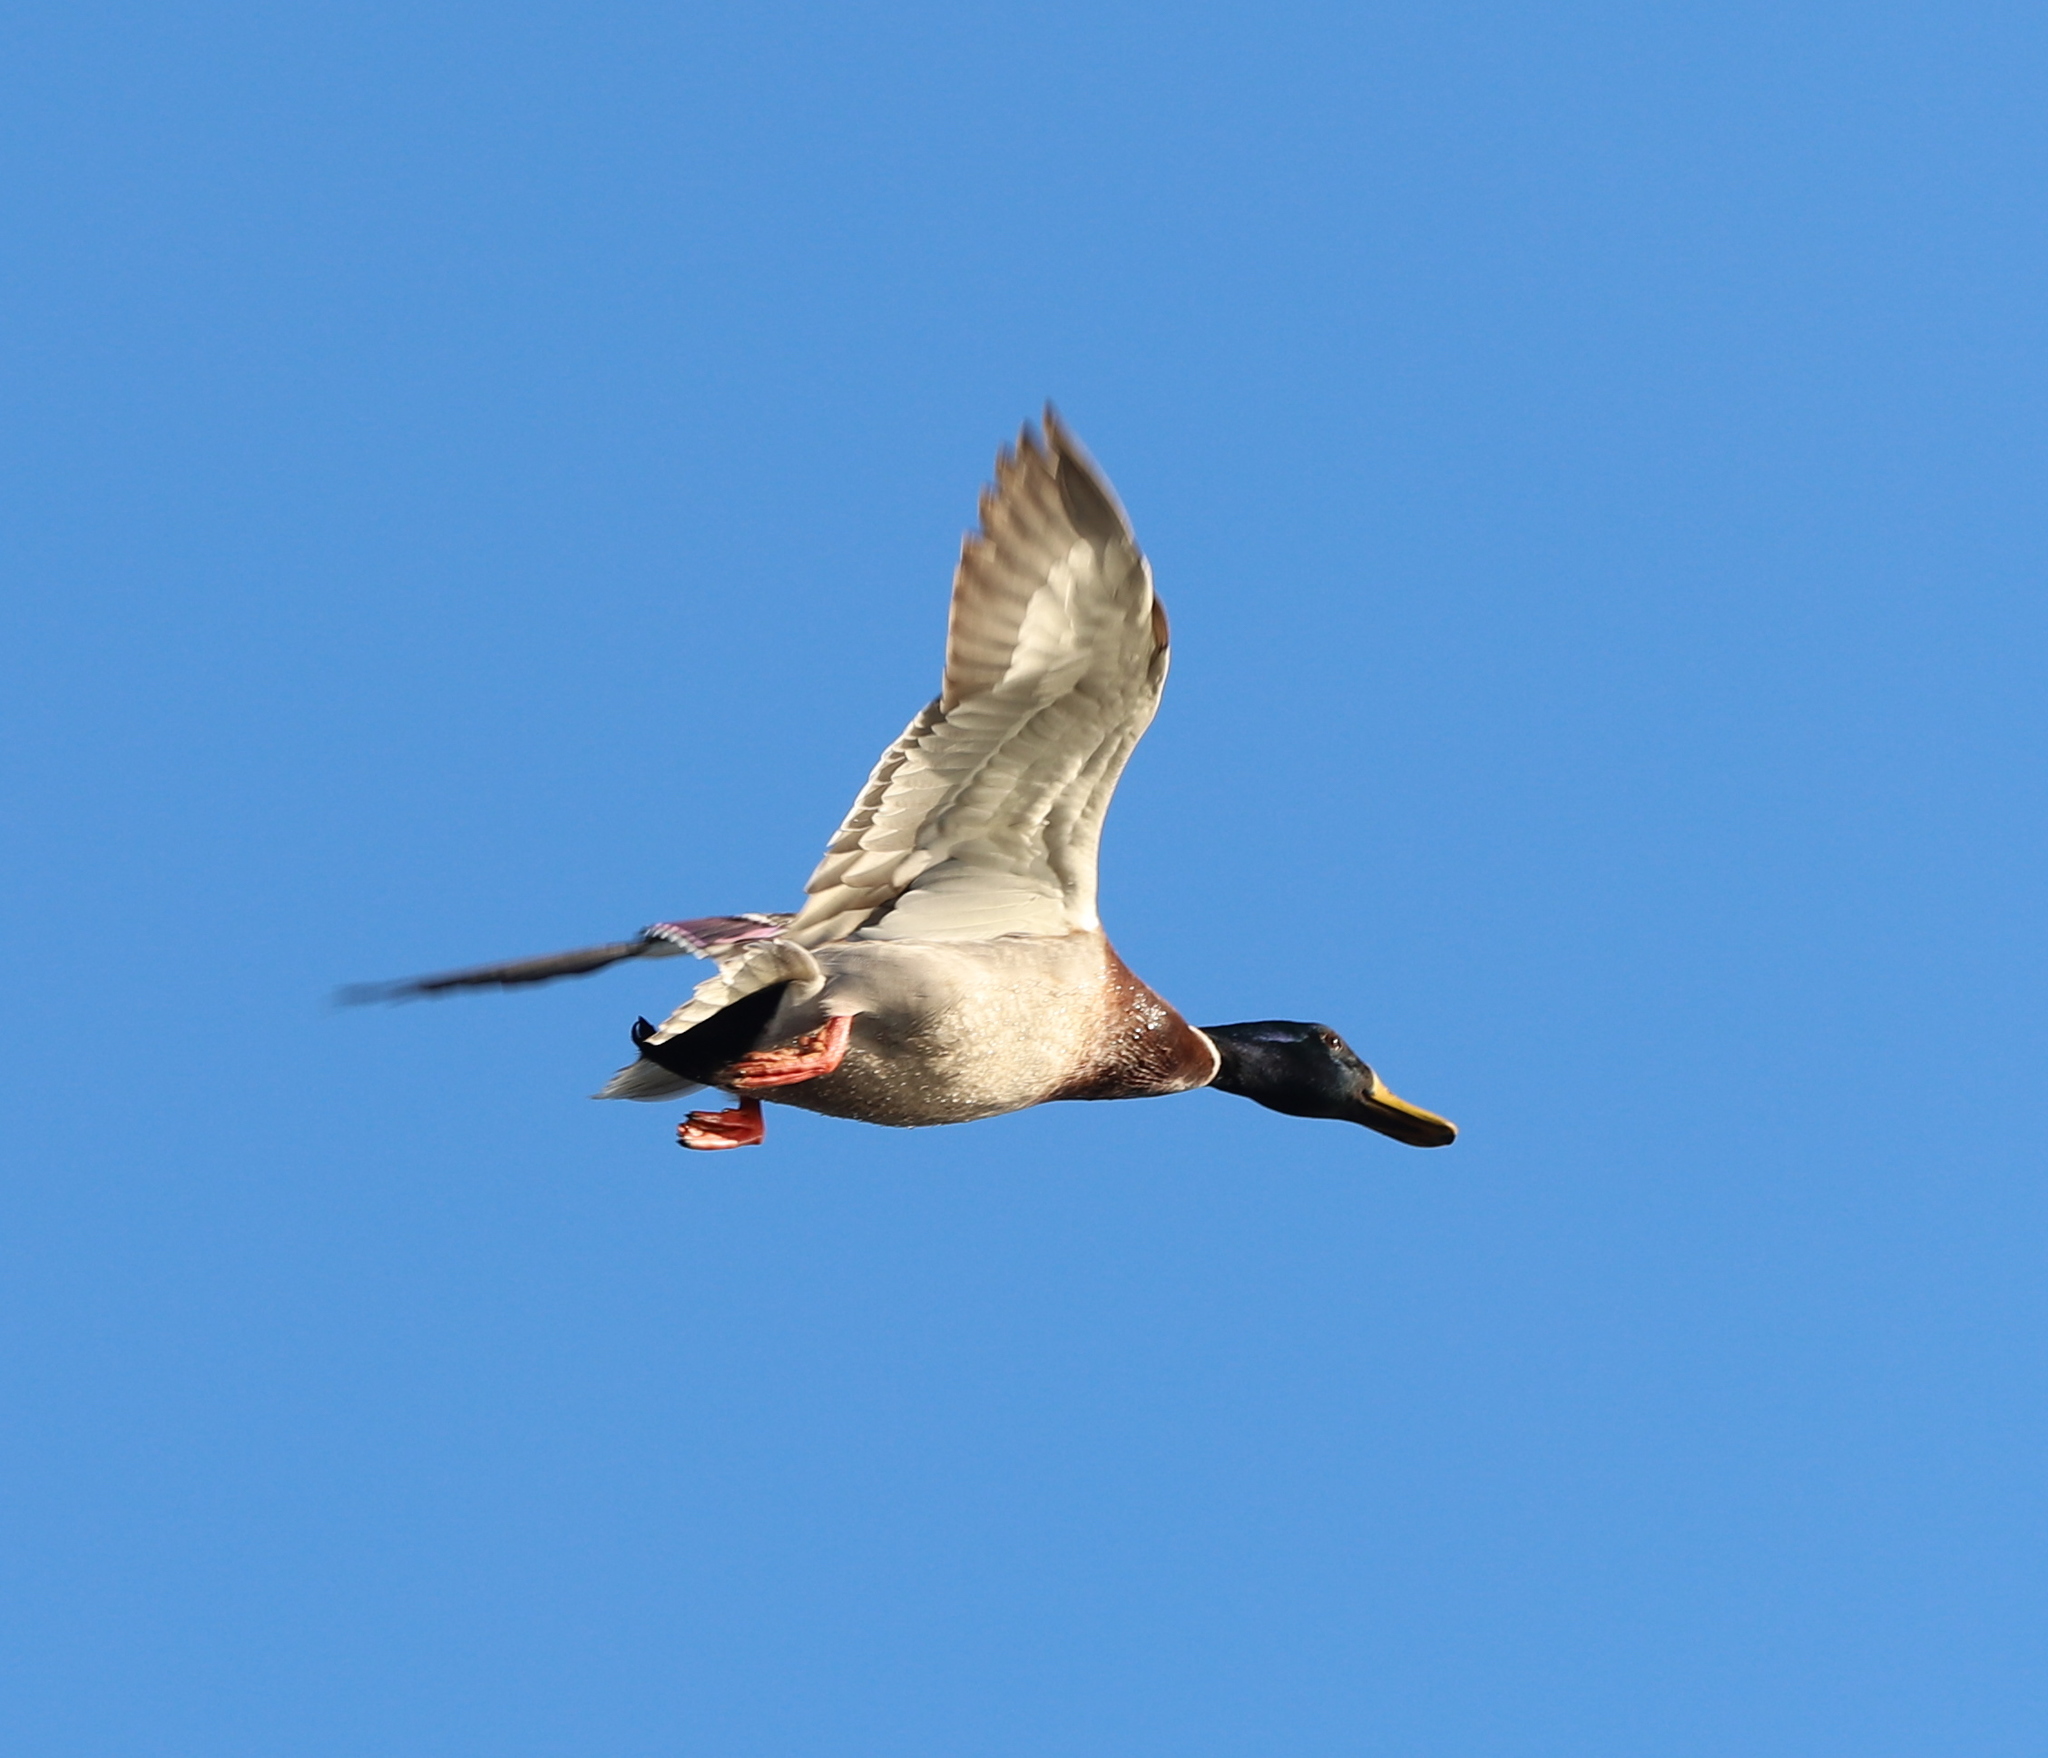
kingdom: Animalia
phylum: Chordata
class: Aves
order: Anseriformes
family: Anatidae
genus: Anas
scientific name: Anas platyrhynchos
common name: Mallard
